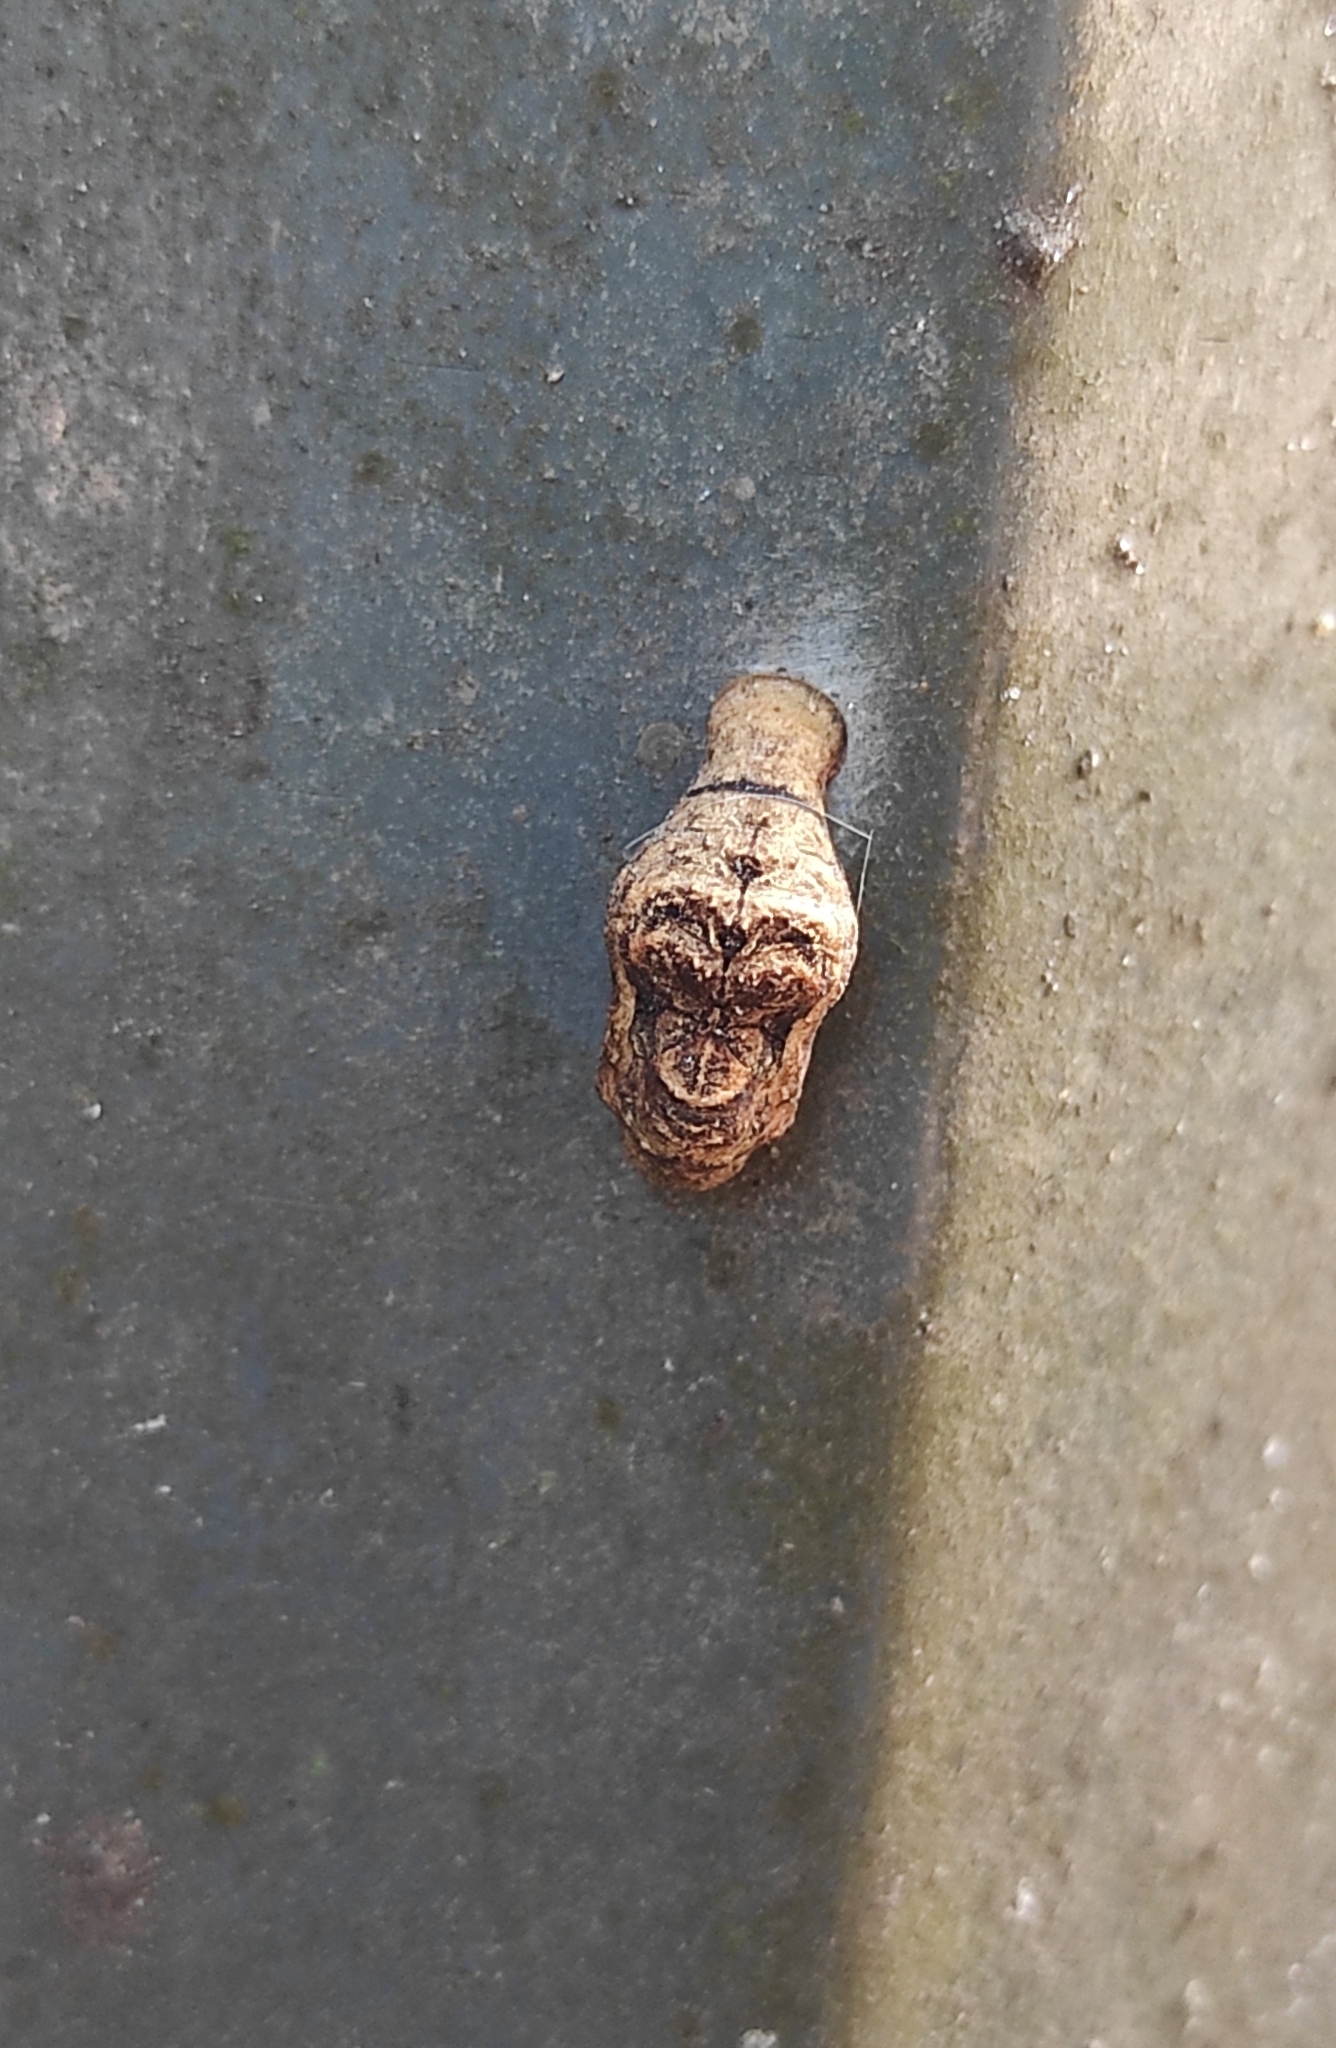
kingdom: Animalia
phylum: Arthropoda
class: Insecta
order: Lepidoptera
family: Lycaenidae
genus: Tajuria
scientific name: Tajuria cippus
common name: Peacock royal
